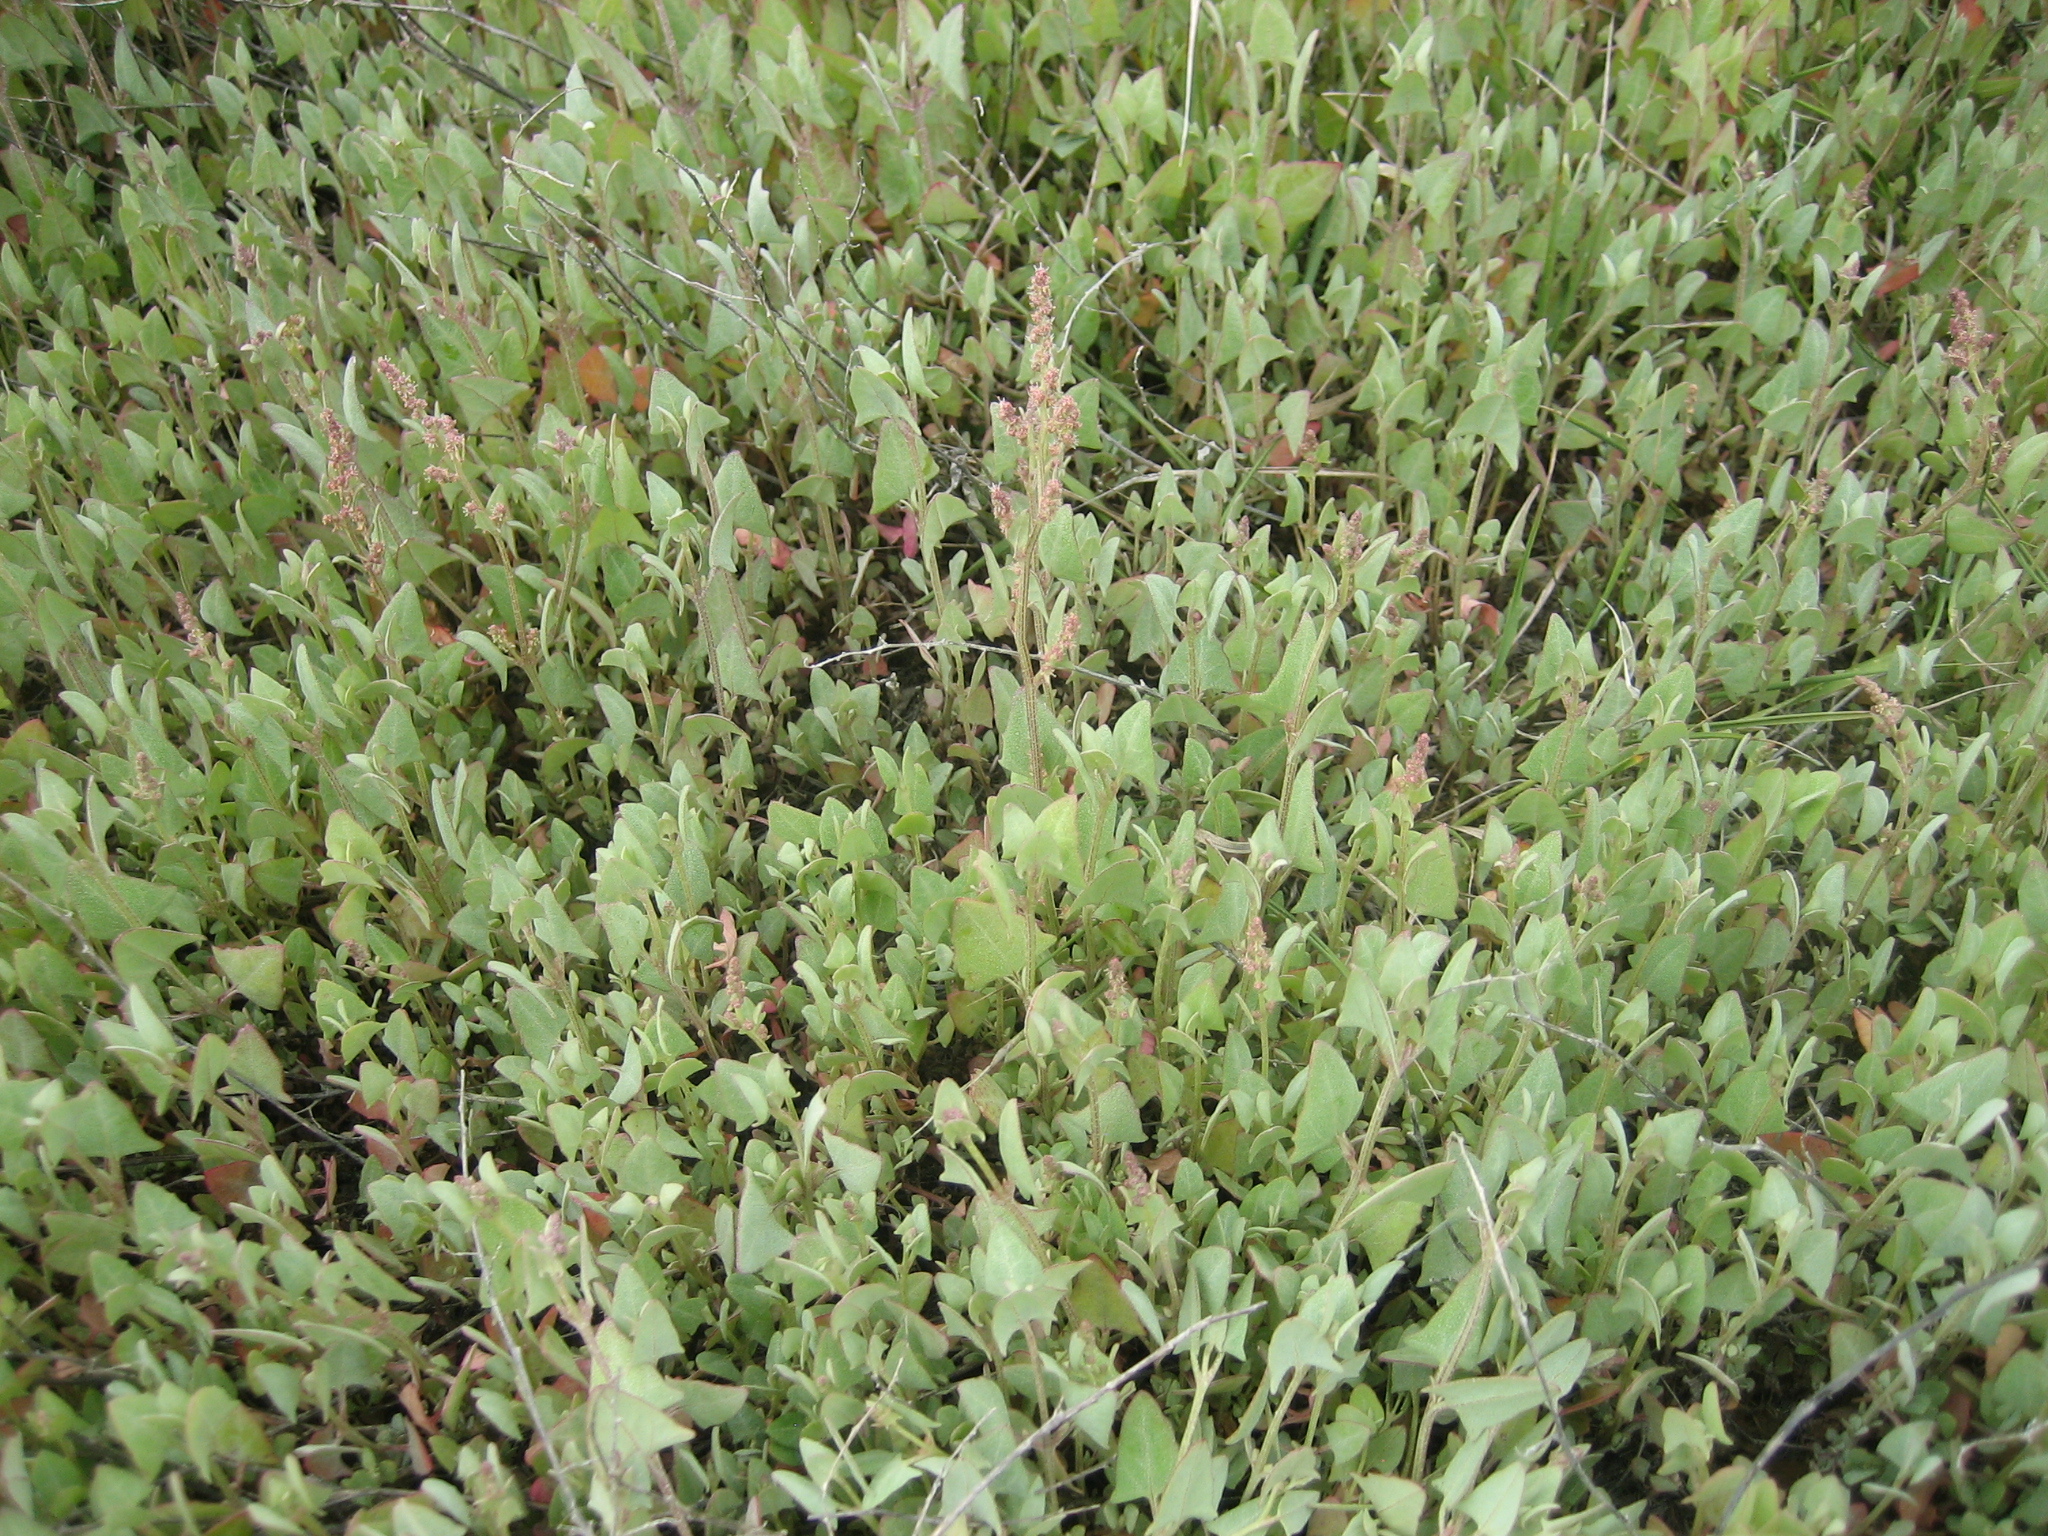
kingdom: Plantae
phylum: Tracheophyta
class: Magnoliopsida
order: Caryophyllales
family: Amaranthaceae
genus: Atriplex
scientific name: Atriplex prostrata
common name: Spear-leaved orache
